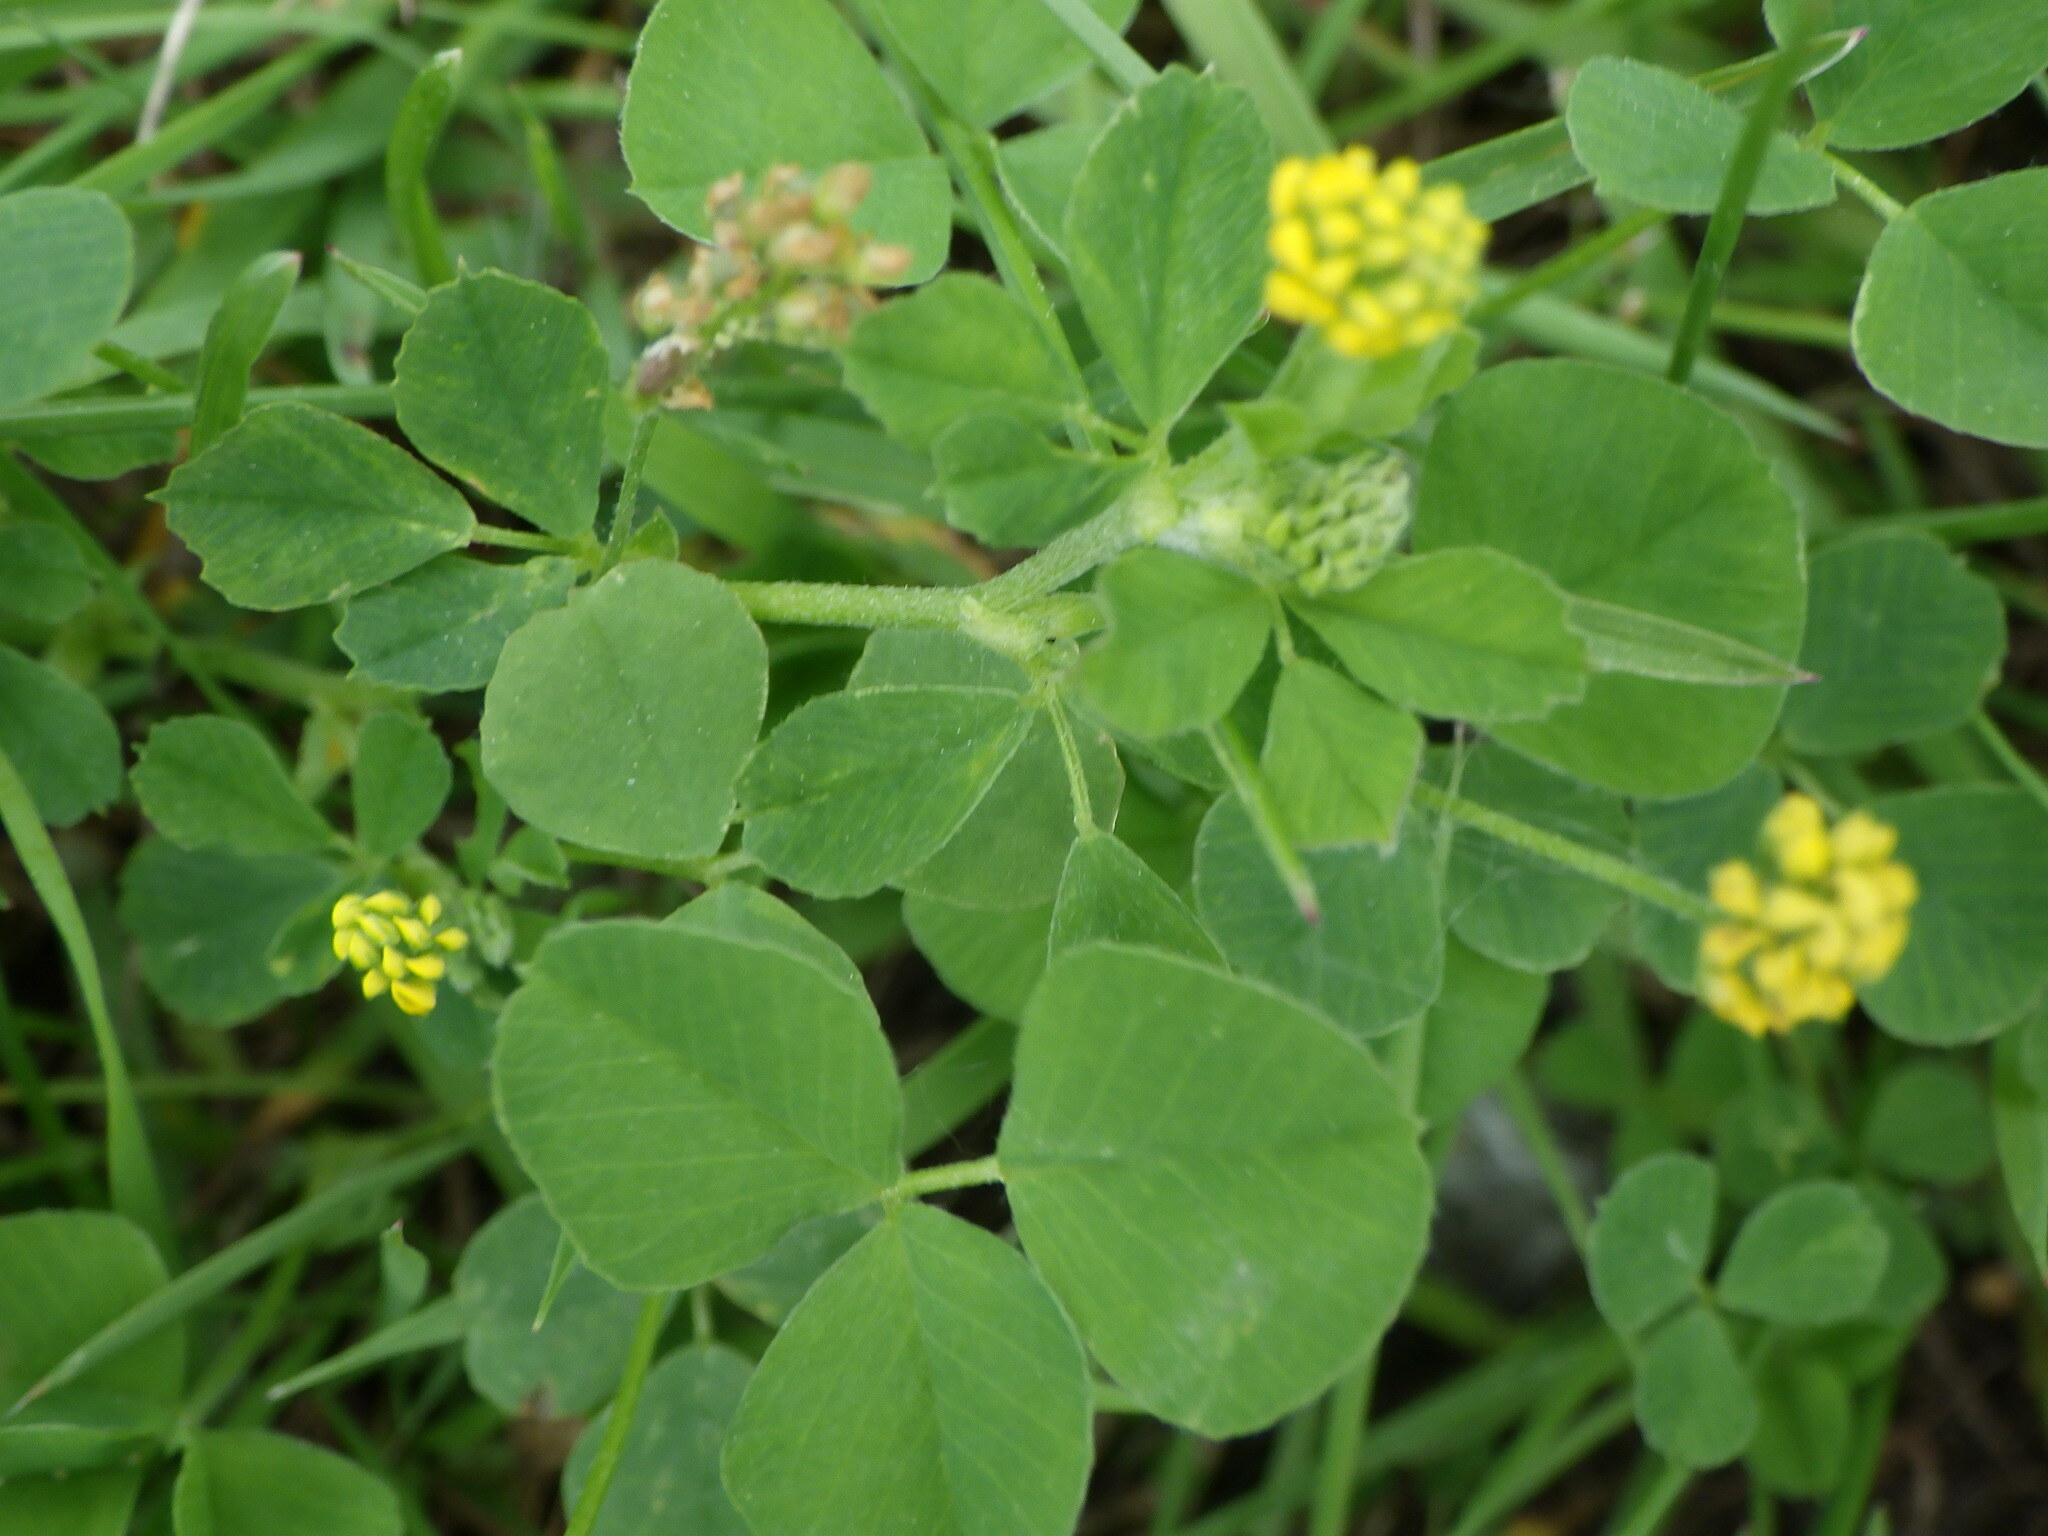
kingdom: Plantae
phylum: Tracheophyta
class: Magnoliopsida
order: Fabales
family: Fabaceae
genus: Medicago
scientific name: Medicago lupulina
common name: Black medick
